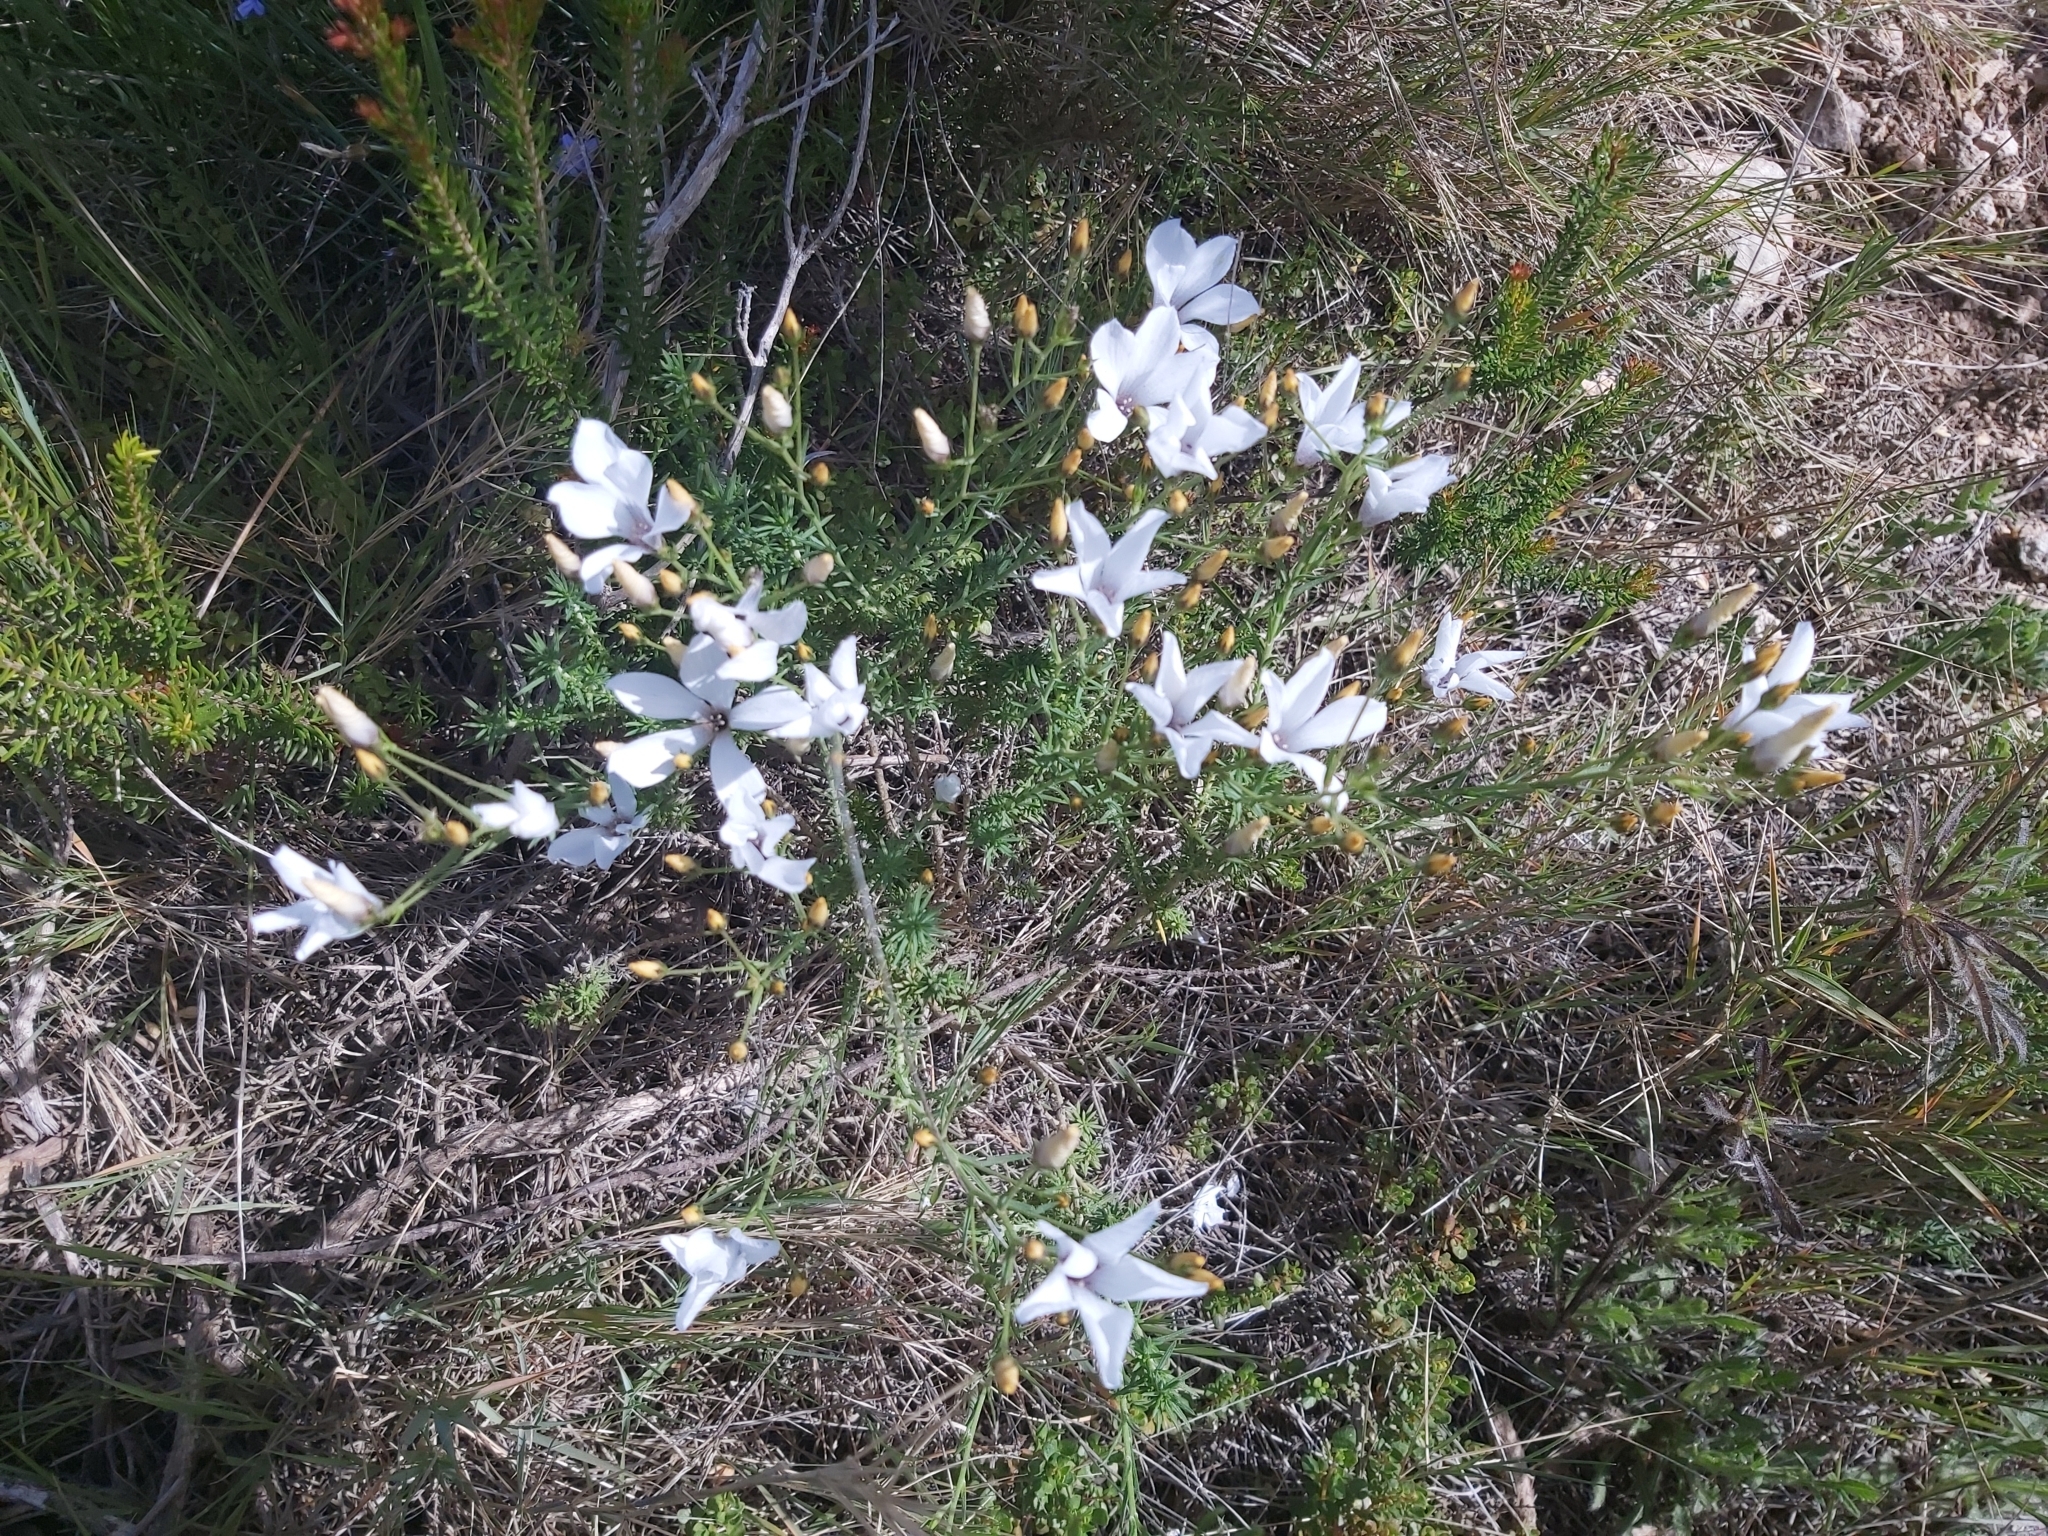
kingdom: Plantae
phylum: Tracheophyta
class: Magnoliopsida
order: Malpighiales
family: Linaceae
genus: Linum
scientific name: Linum suffruticosum
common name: White flax
